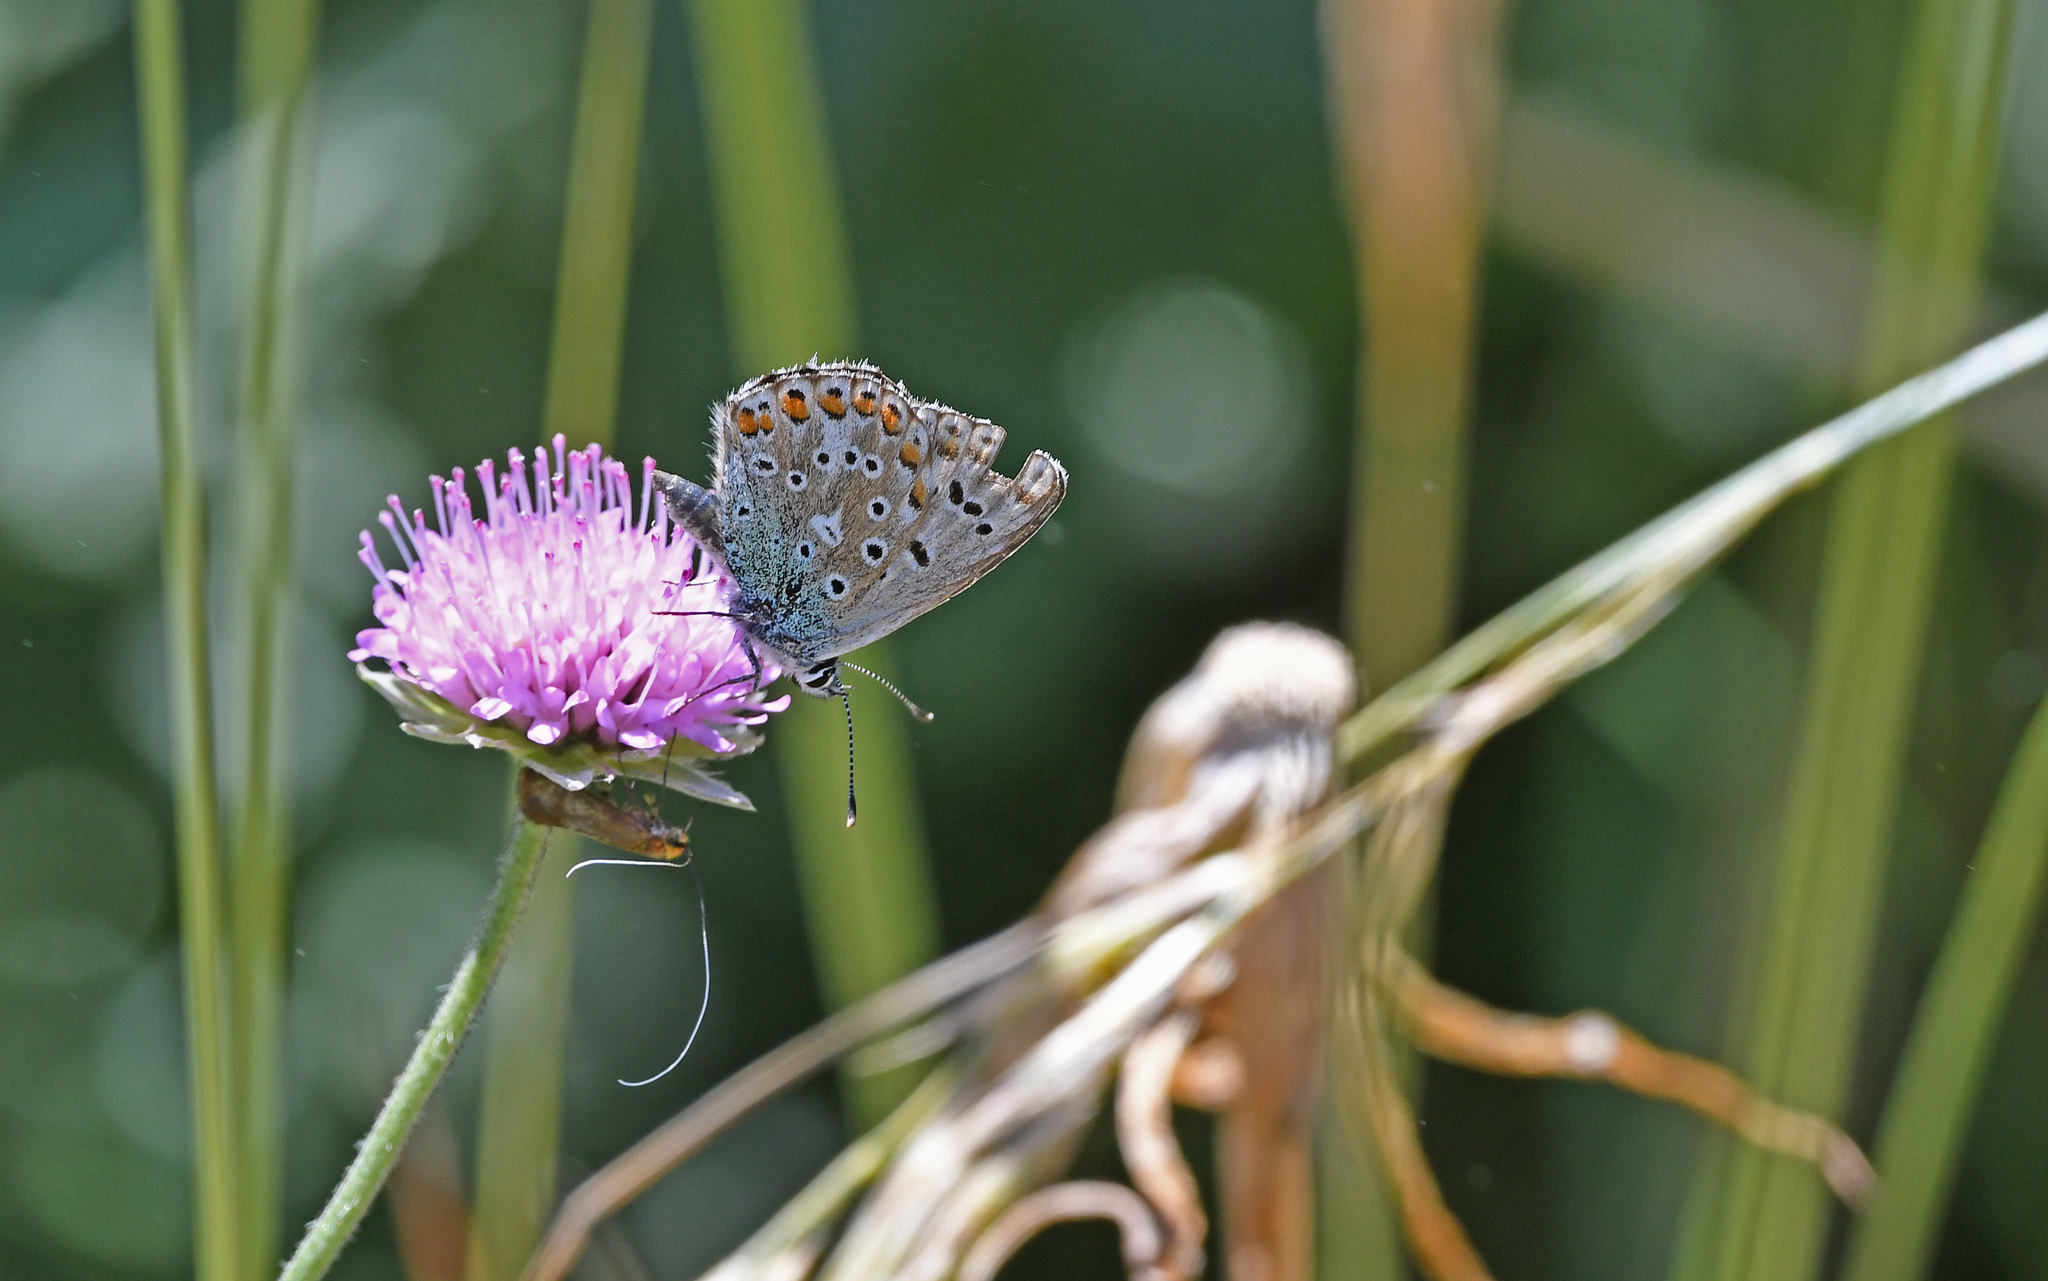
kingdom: Animalia
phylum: Arthropoda
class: Insecta
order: Lepidoptera
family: Lycaenidae
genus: Polyommatus
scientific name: Polyommatus icarus
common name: Common blue
